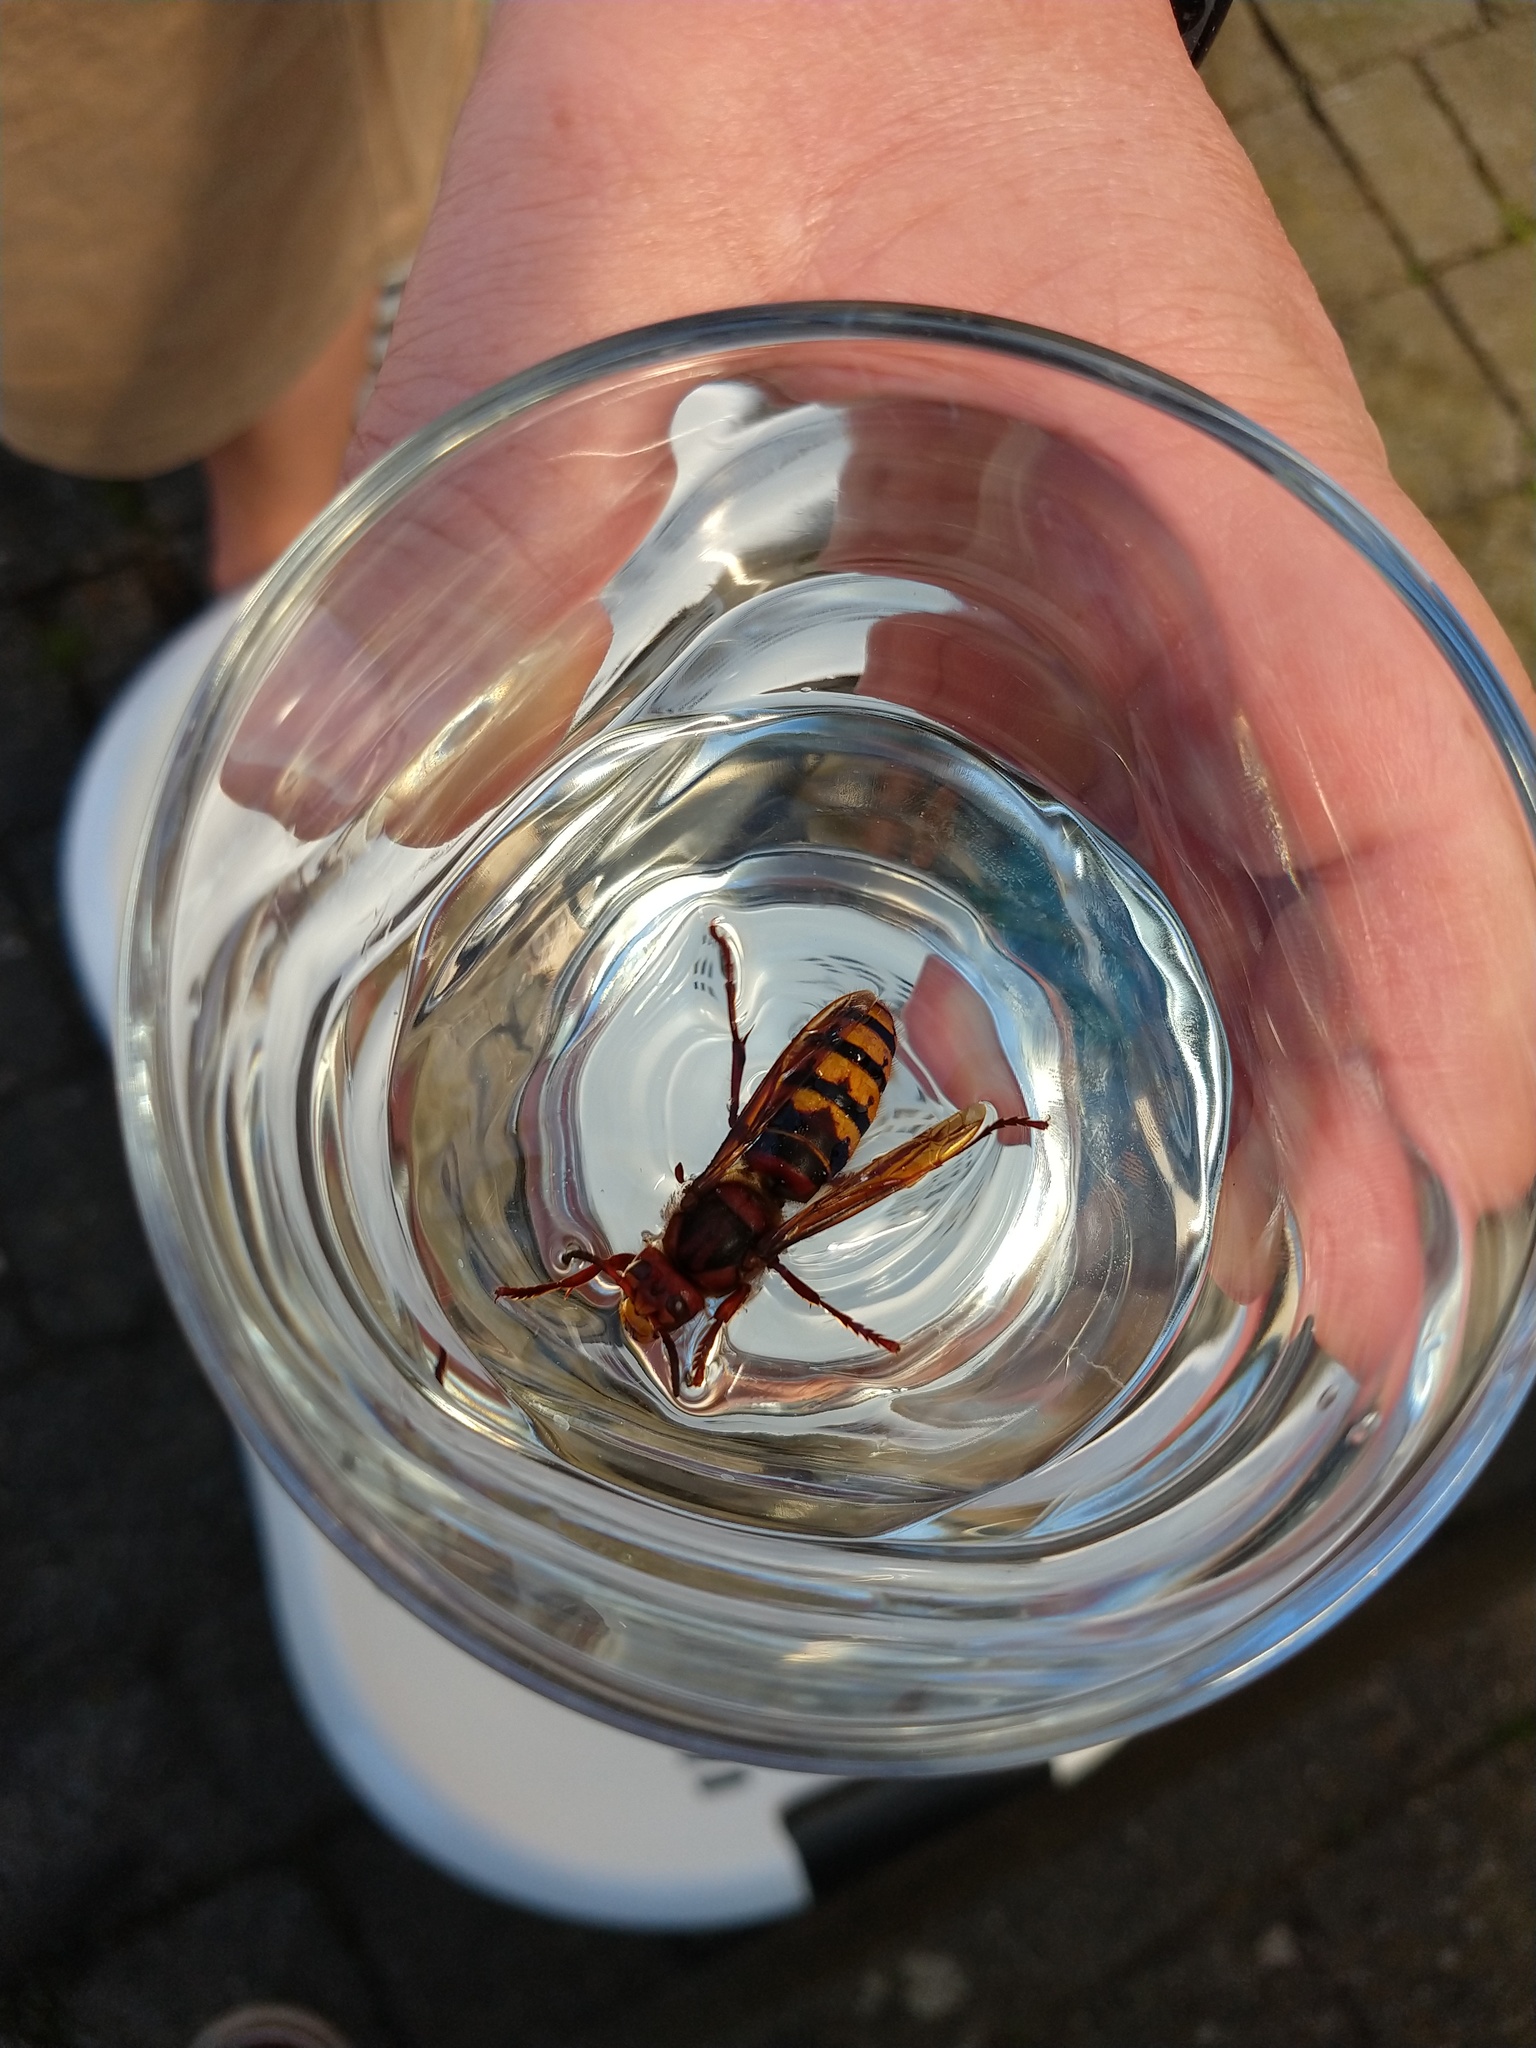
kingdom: Animalia
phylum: Arthropoda
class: Insecta
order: Hymenoptera
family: Vespidae
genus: Vespa
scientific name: Vespa crabro
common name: Hornet
